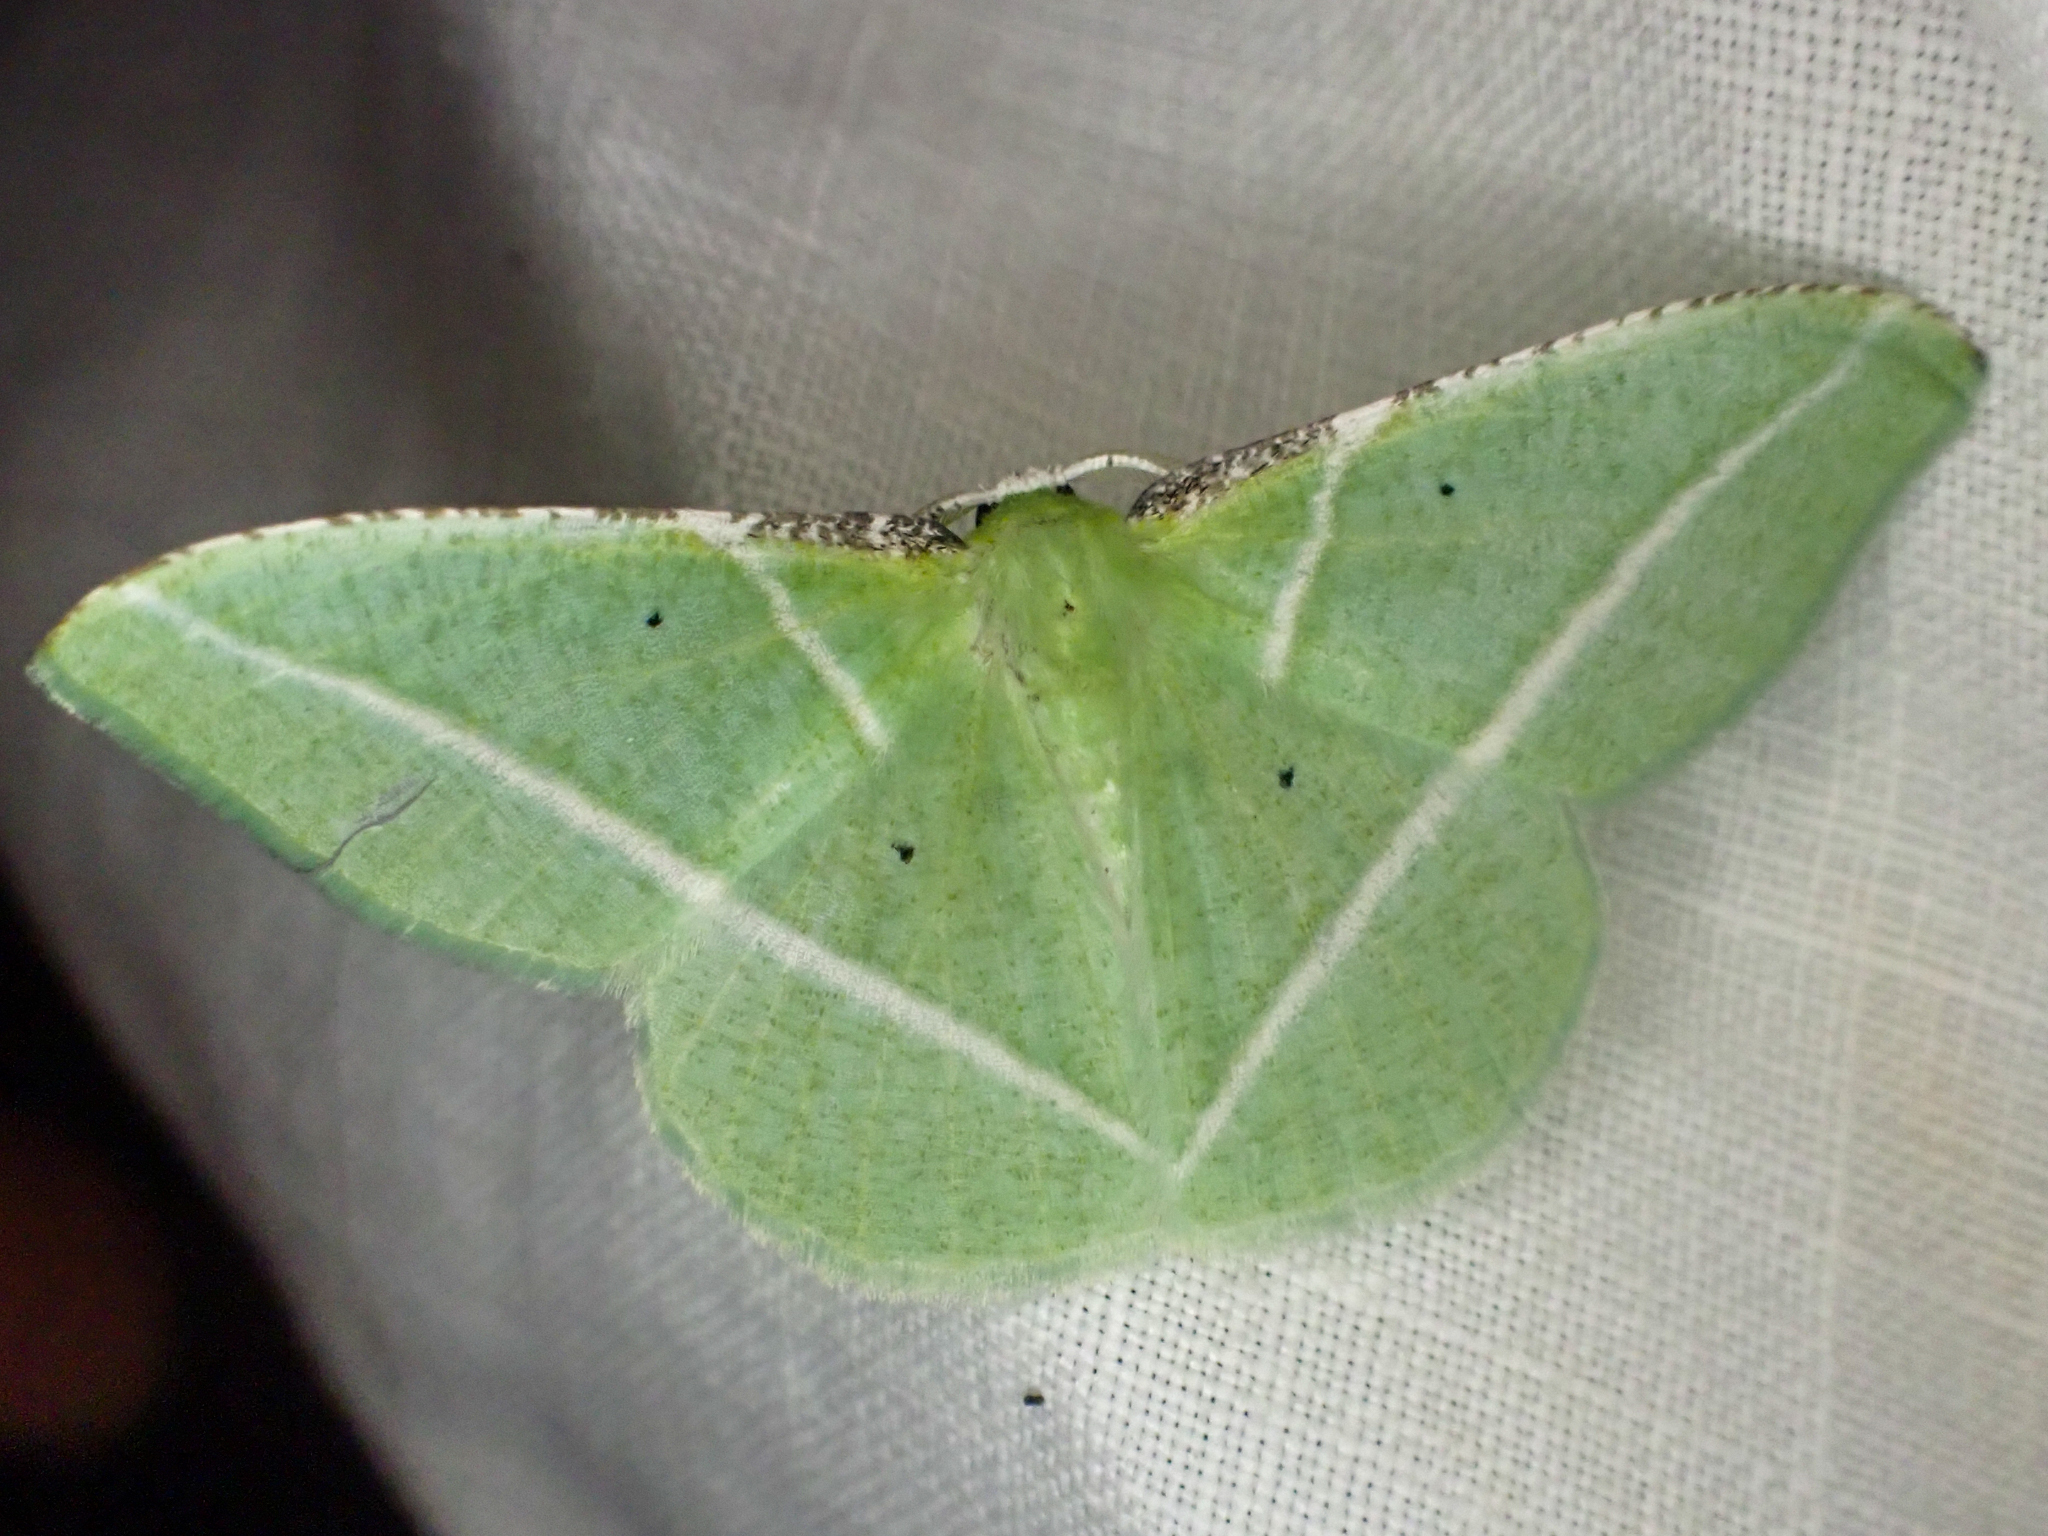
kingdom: Animalia
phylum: Arthropoda
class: Insecta
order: Lepidoptera
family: Geometridae
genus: Dichorda
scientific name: Dichorda illustraria
